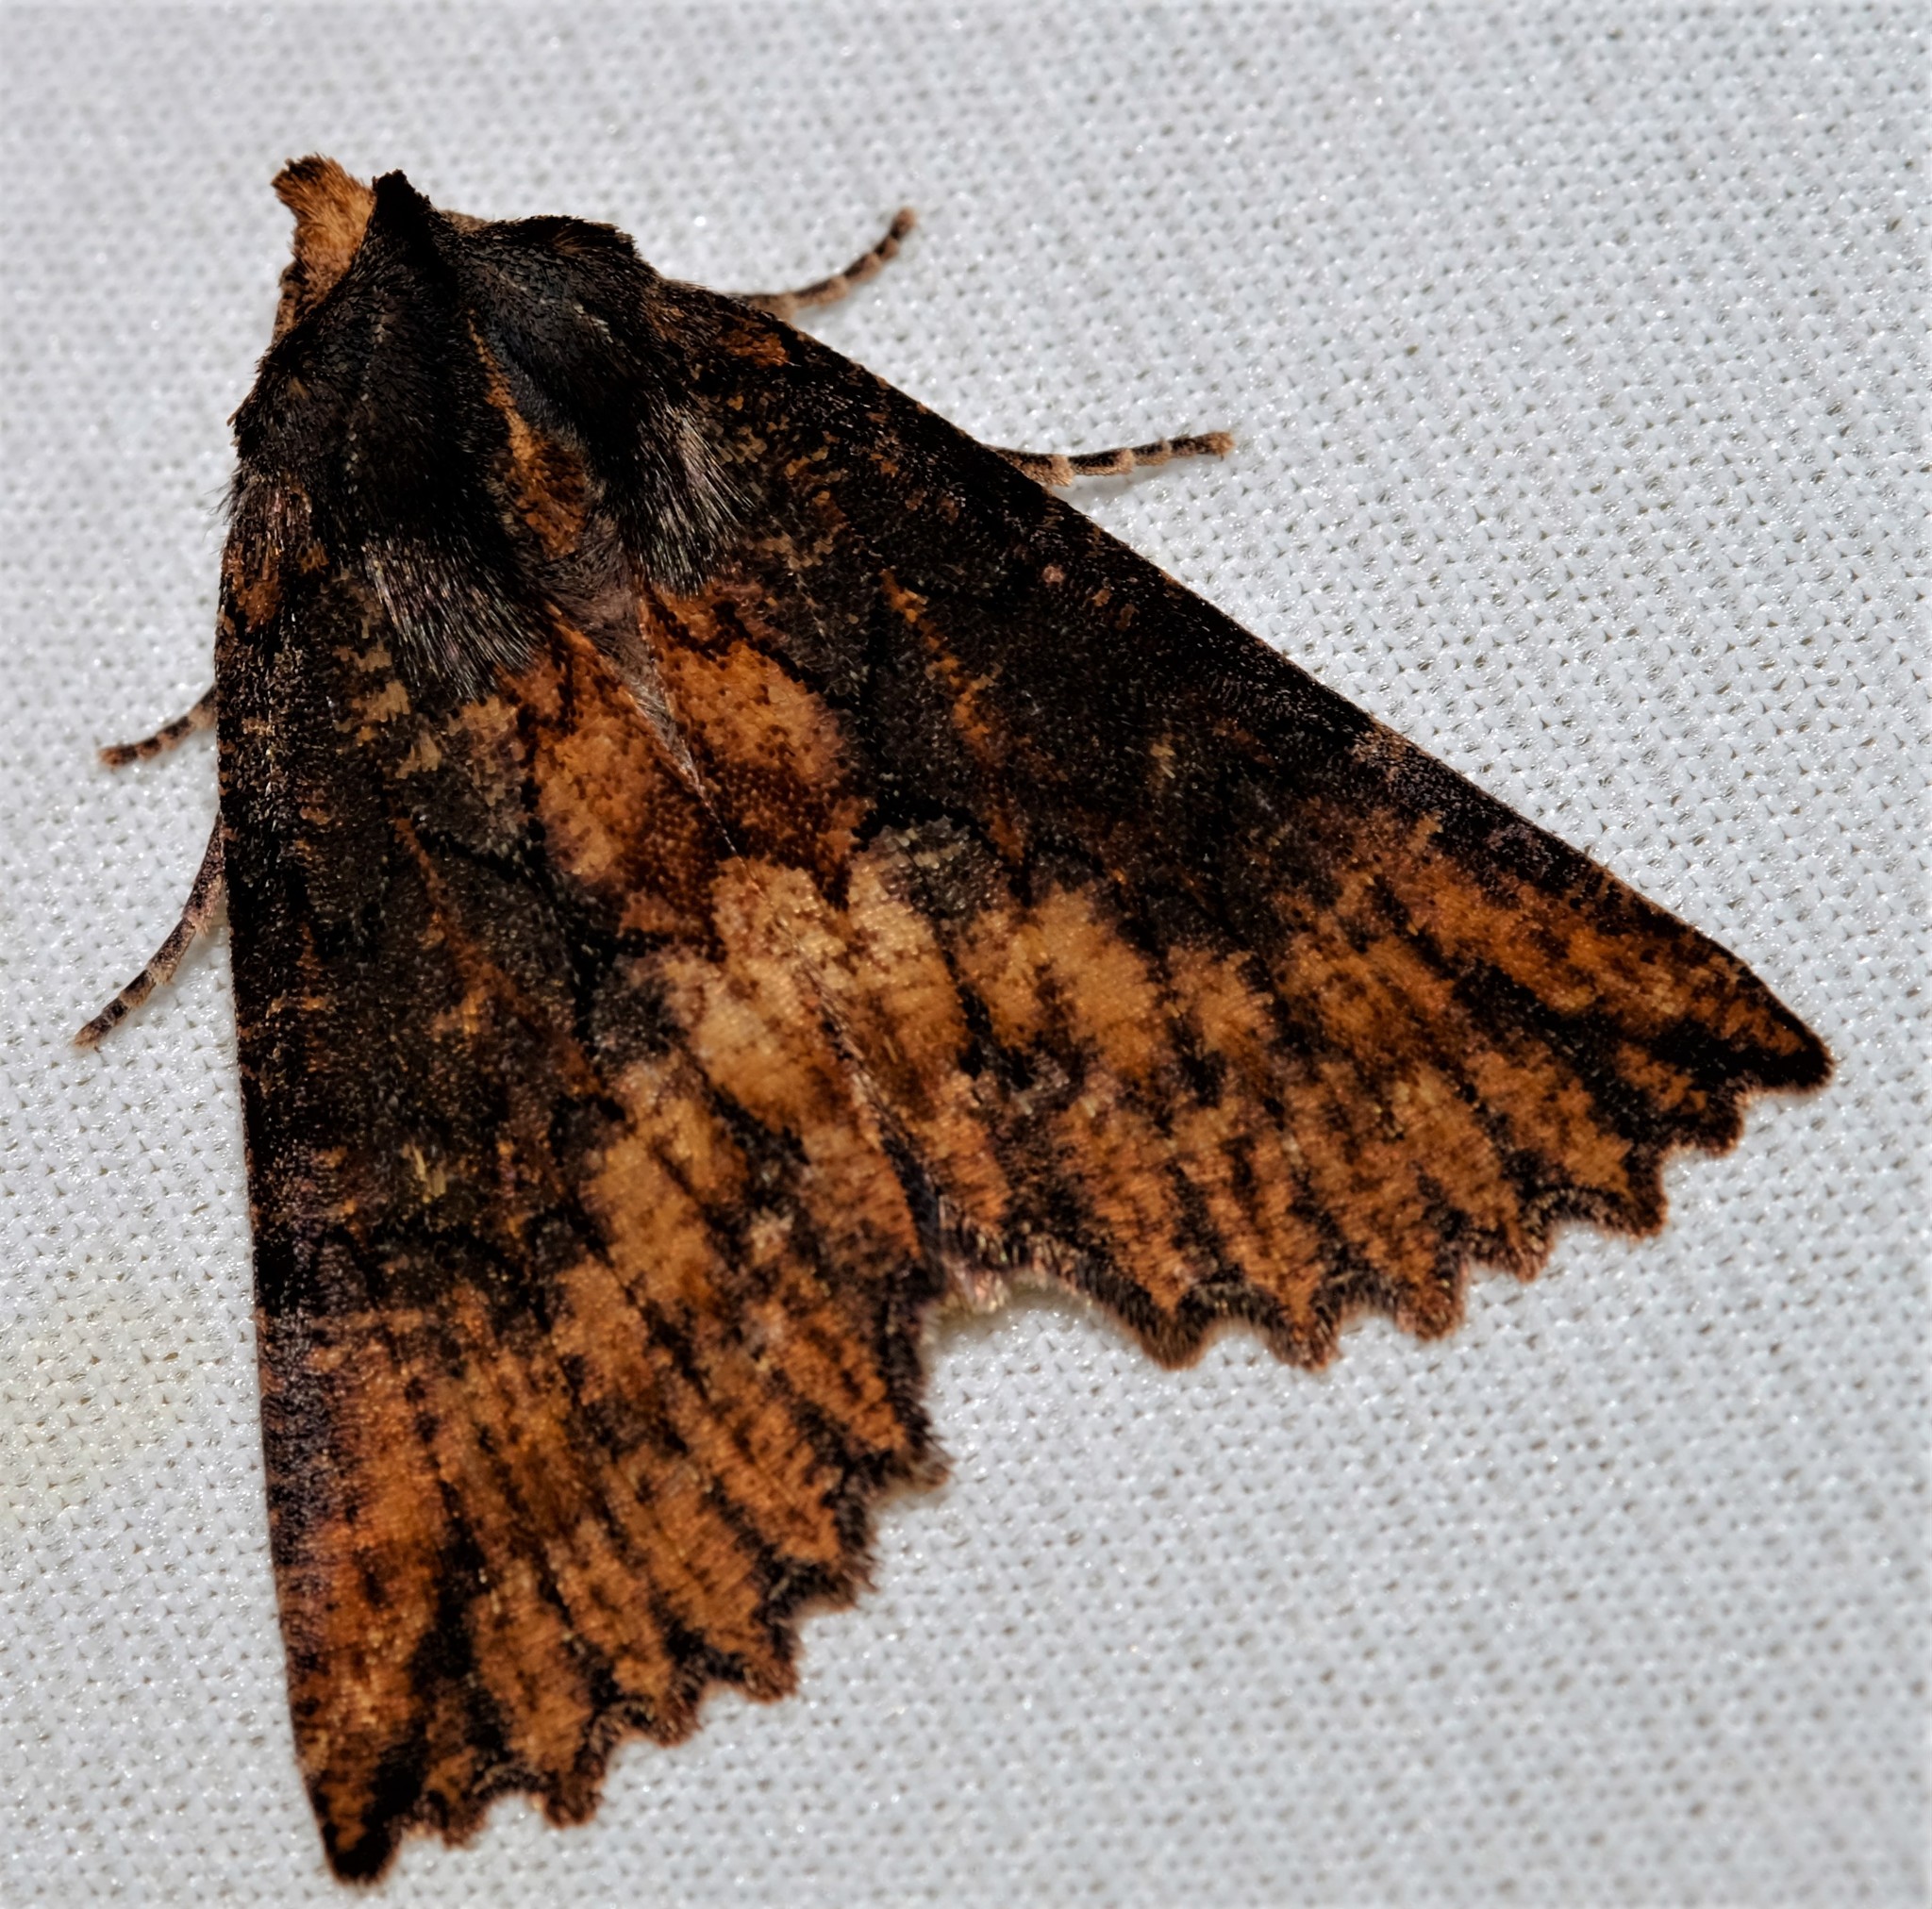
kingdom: Animalia
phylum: Arthropoda
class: Insecta
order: Lepidoptera
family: Geometridae
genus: Nisista
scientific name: Nisista serrata
